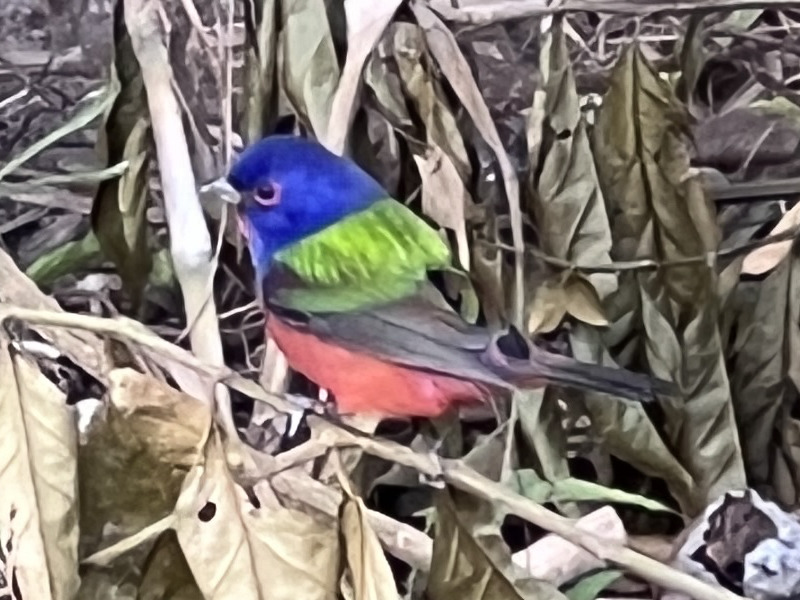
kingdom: Animalia
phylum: Chordata
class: Aves
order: Passeriformes
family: Cardinalidae
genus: Passerina
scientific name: Passerina ciris
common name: Painted bunting
